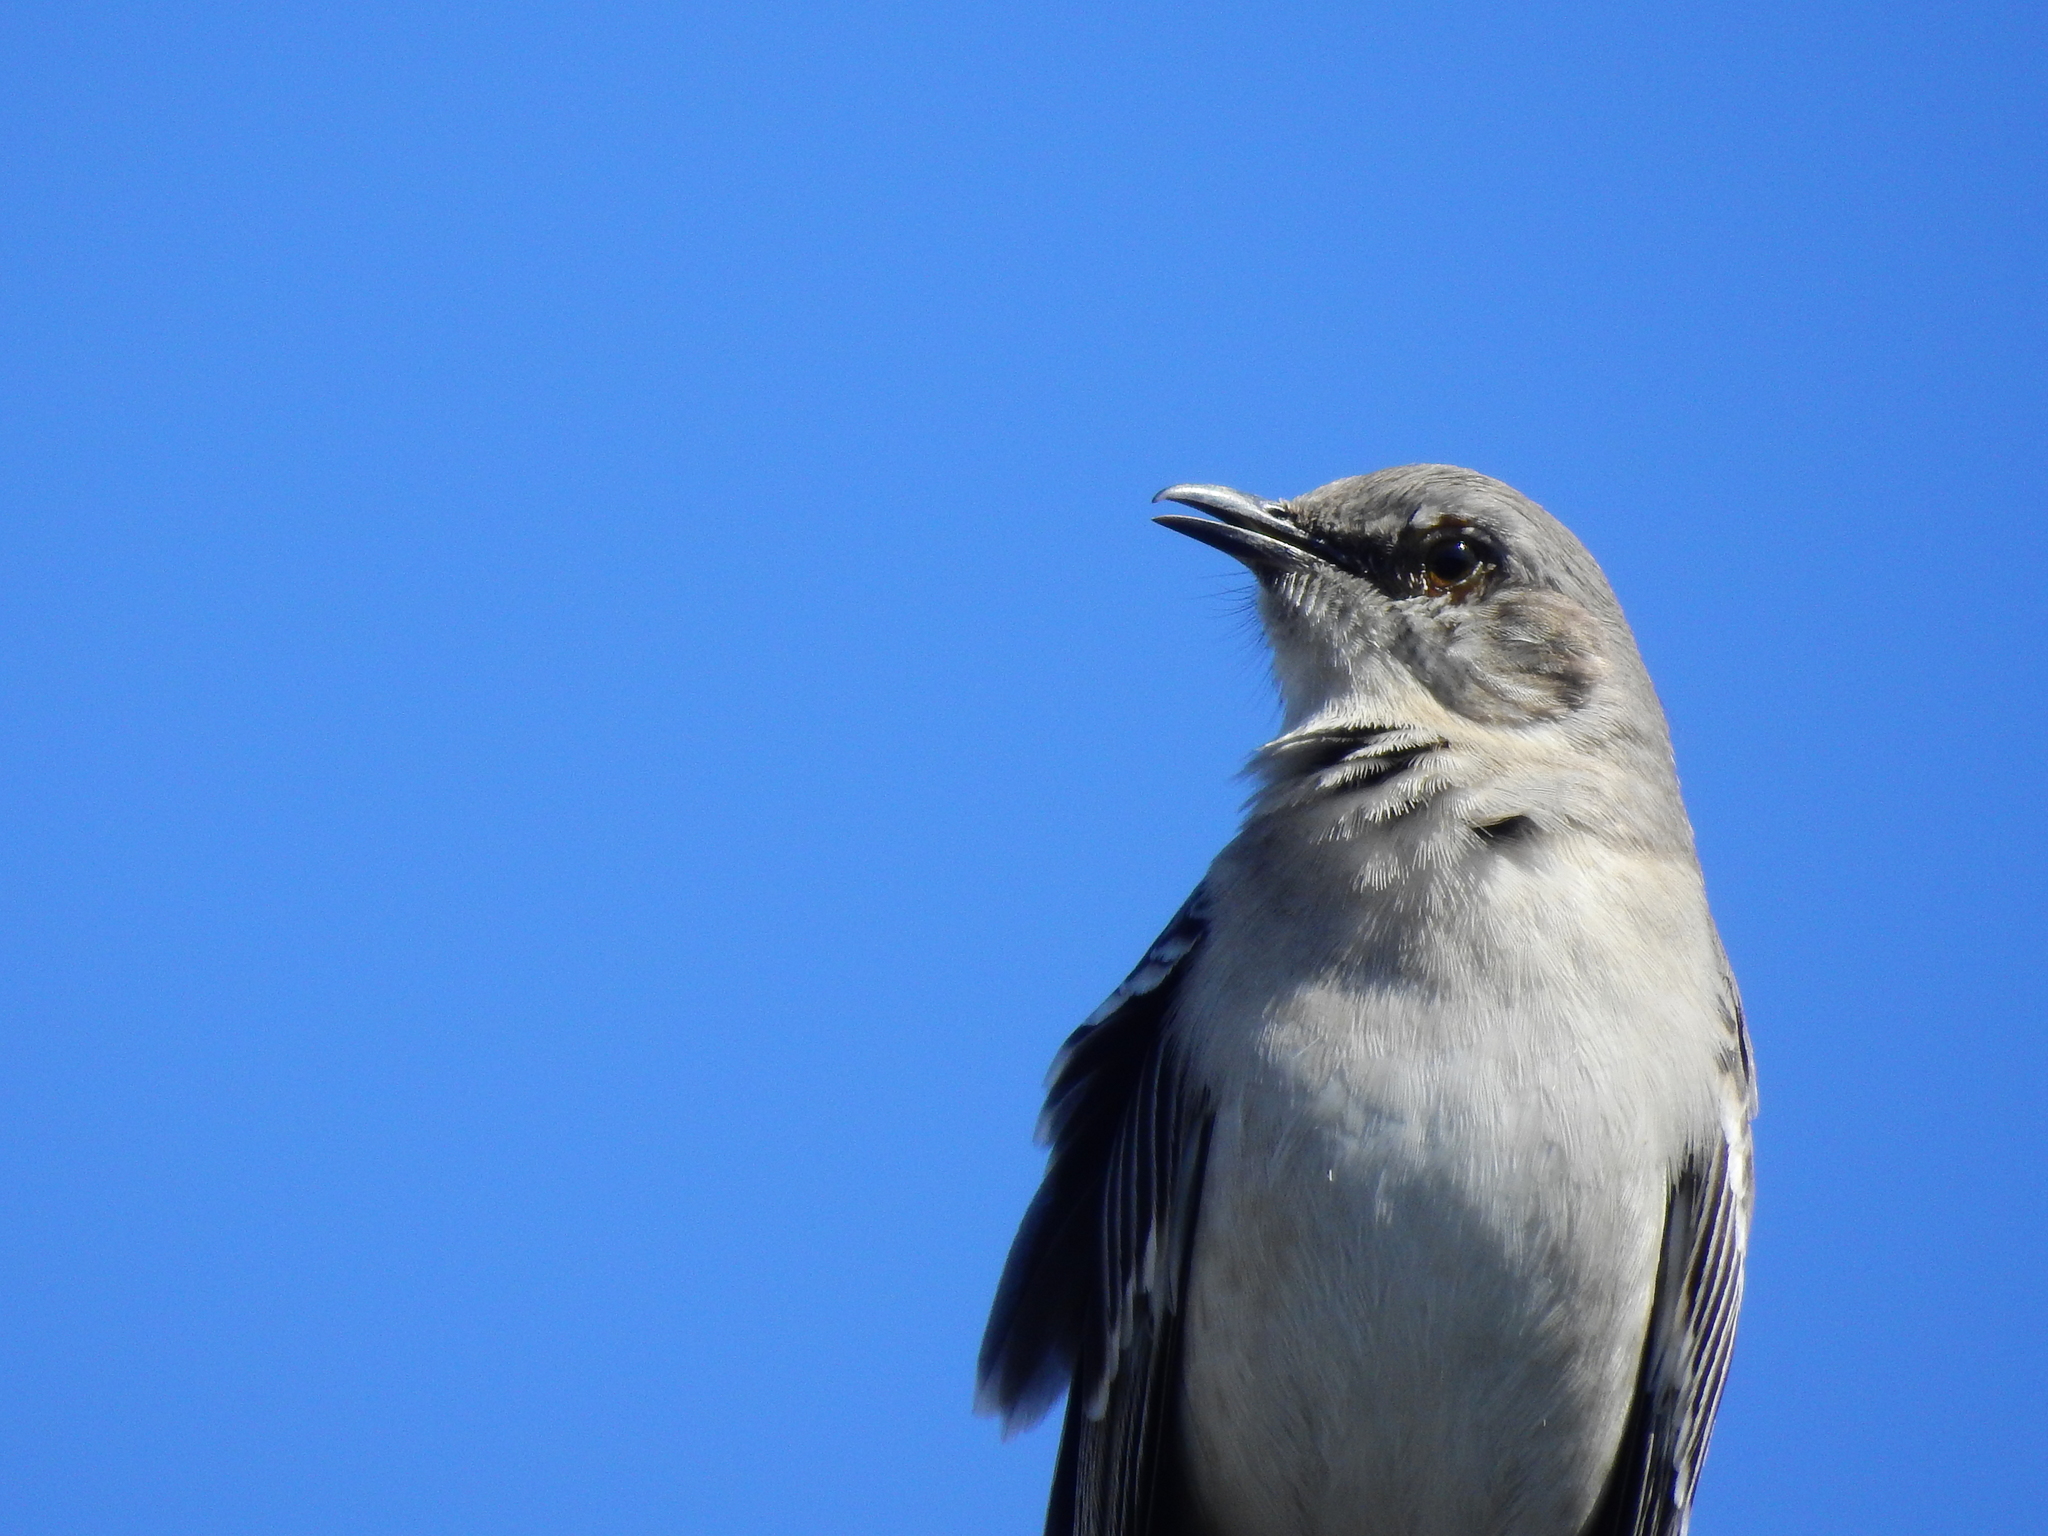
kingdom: Animalia
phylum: Chordata
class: Aves
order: Passeriformes
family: Mimidae
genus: Mimus
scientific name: Mimus polyglottos
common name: Northern mockingbird
